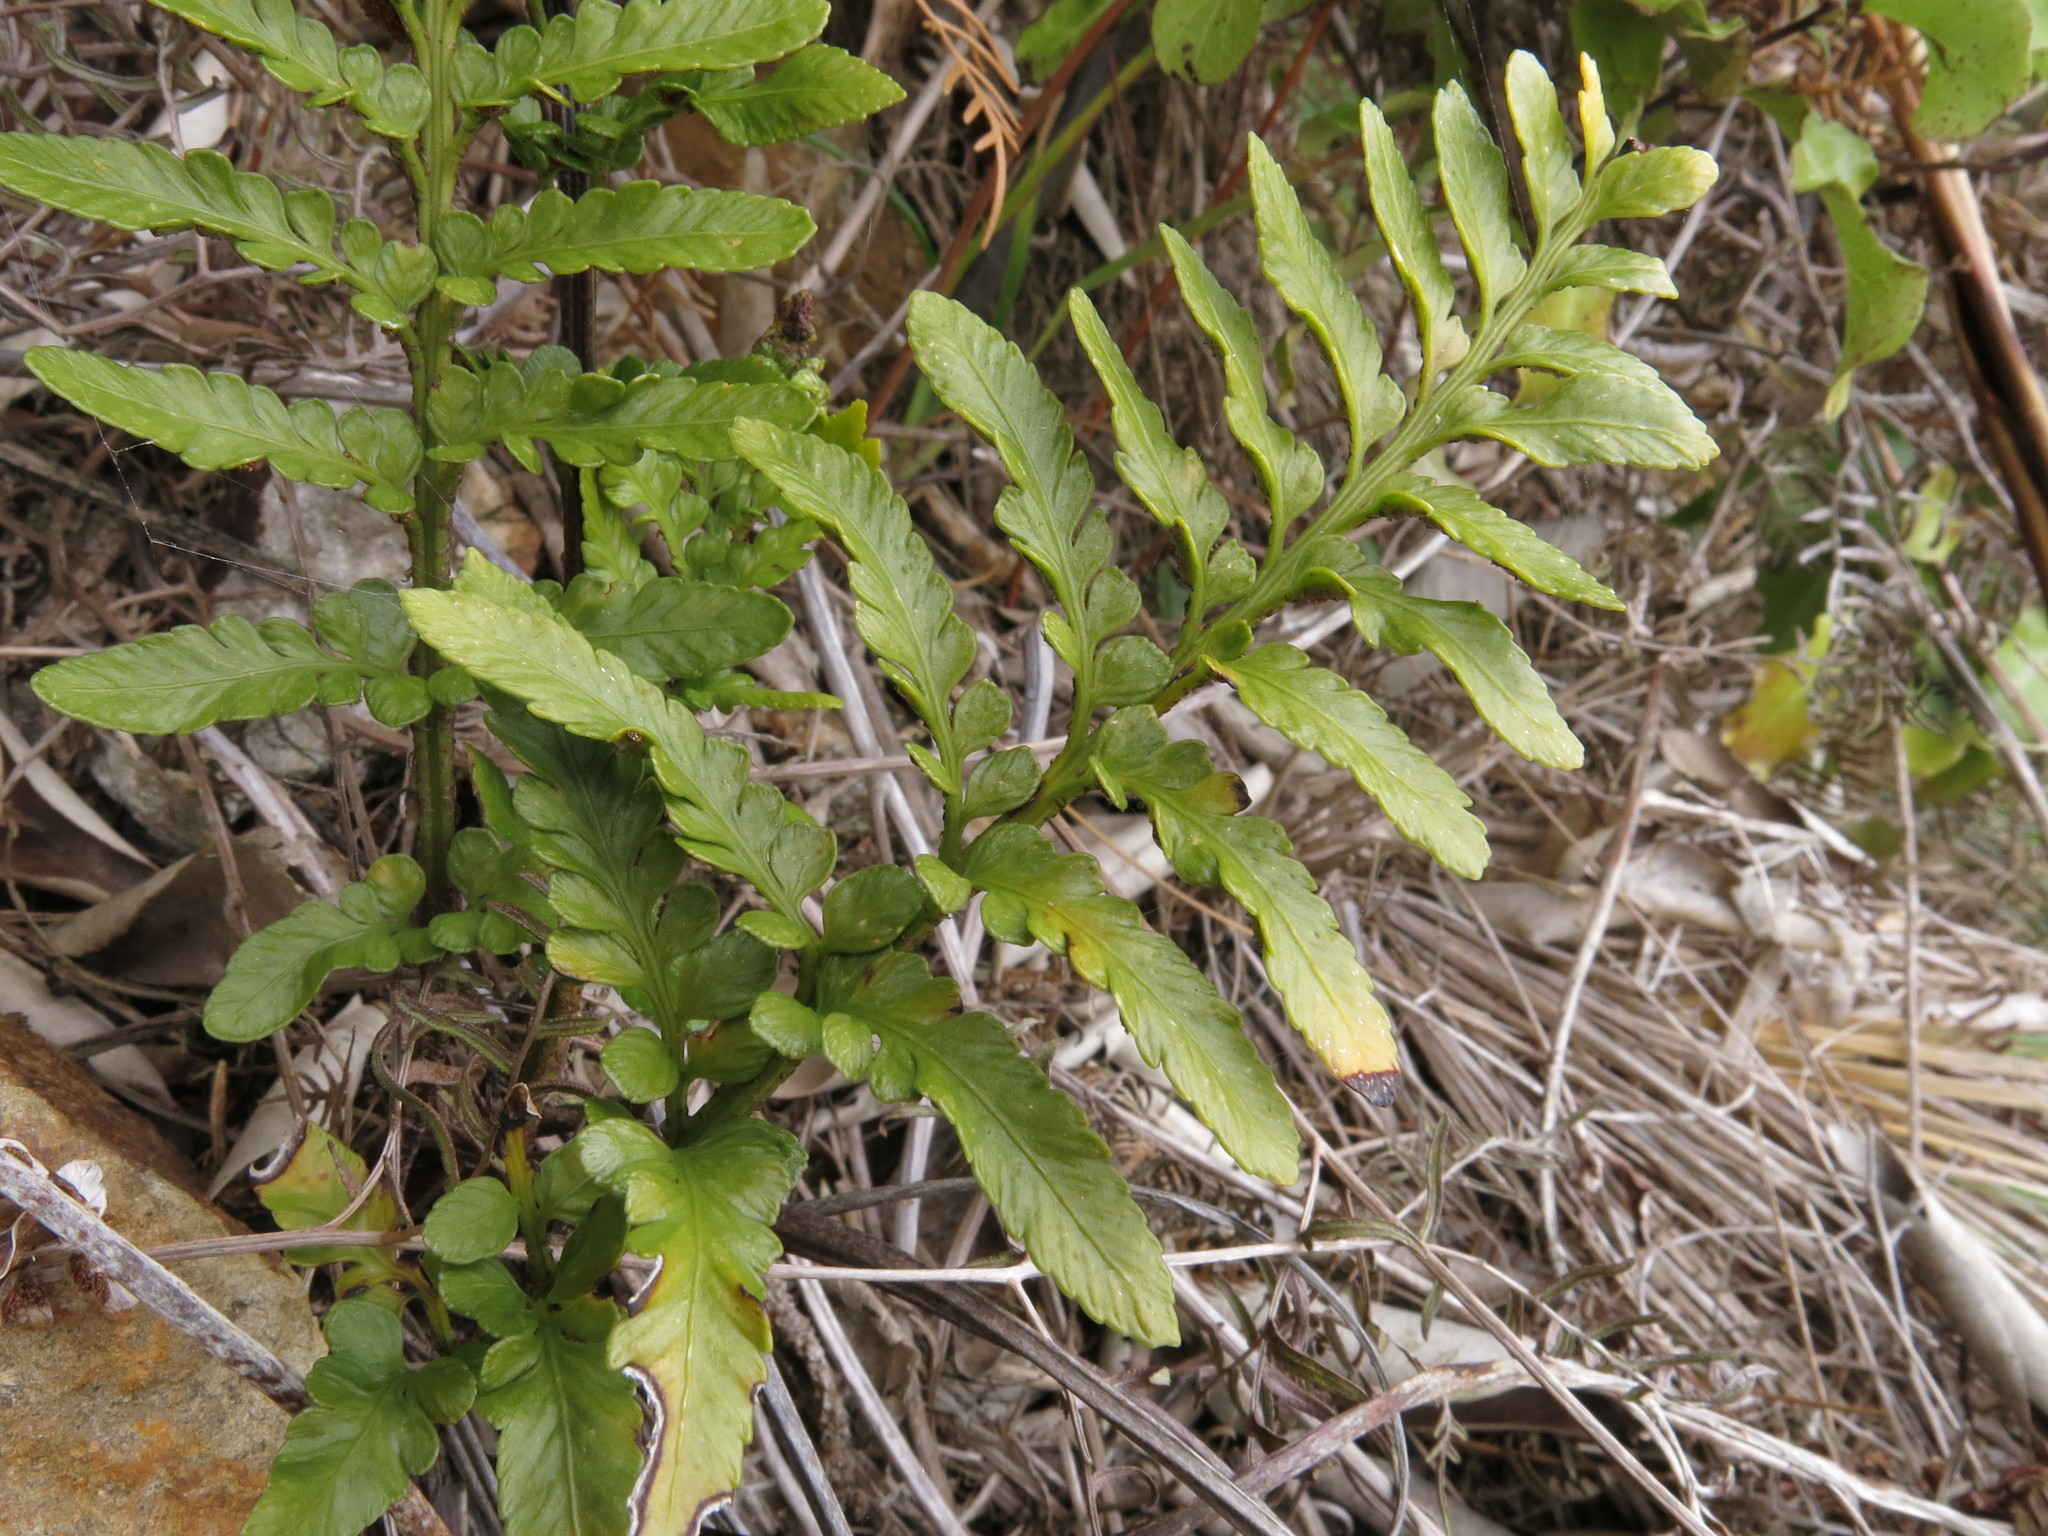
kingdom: Plantae
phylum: Tracheophyta
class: Polypodiopsida
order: Polypodiales
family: Aspleniaceae
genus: Asplenium
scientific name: Asplenium lyallii
